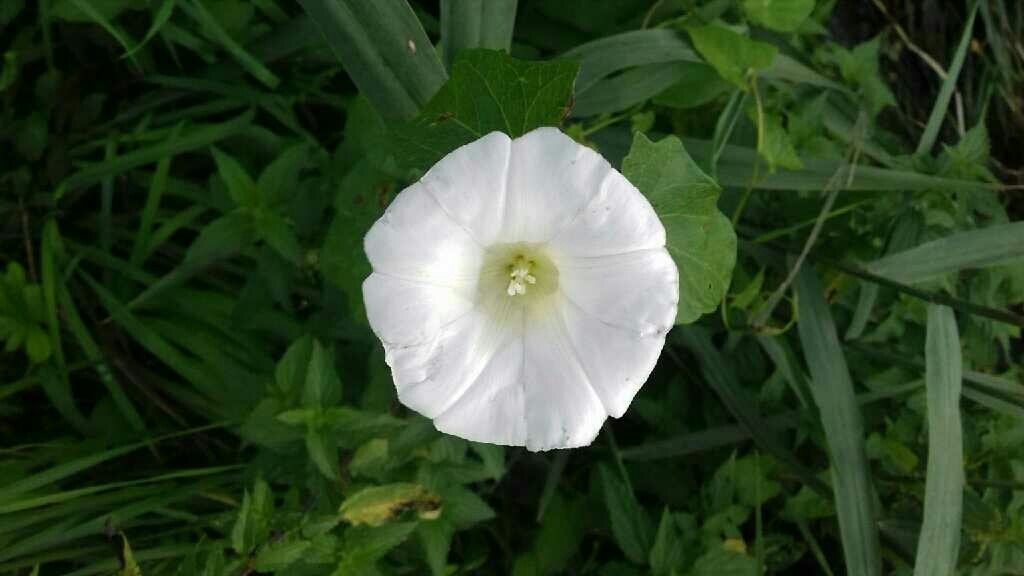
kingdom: Plantae
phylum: Tracheophyta
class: Magnoliopsida
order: Solanales
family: Convolvulaceae
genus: Calystegia
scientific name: Calystegia sepium
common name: Hedge bindweed
